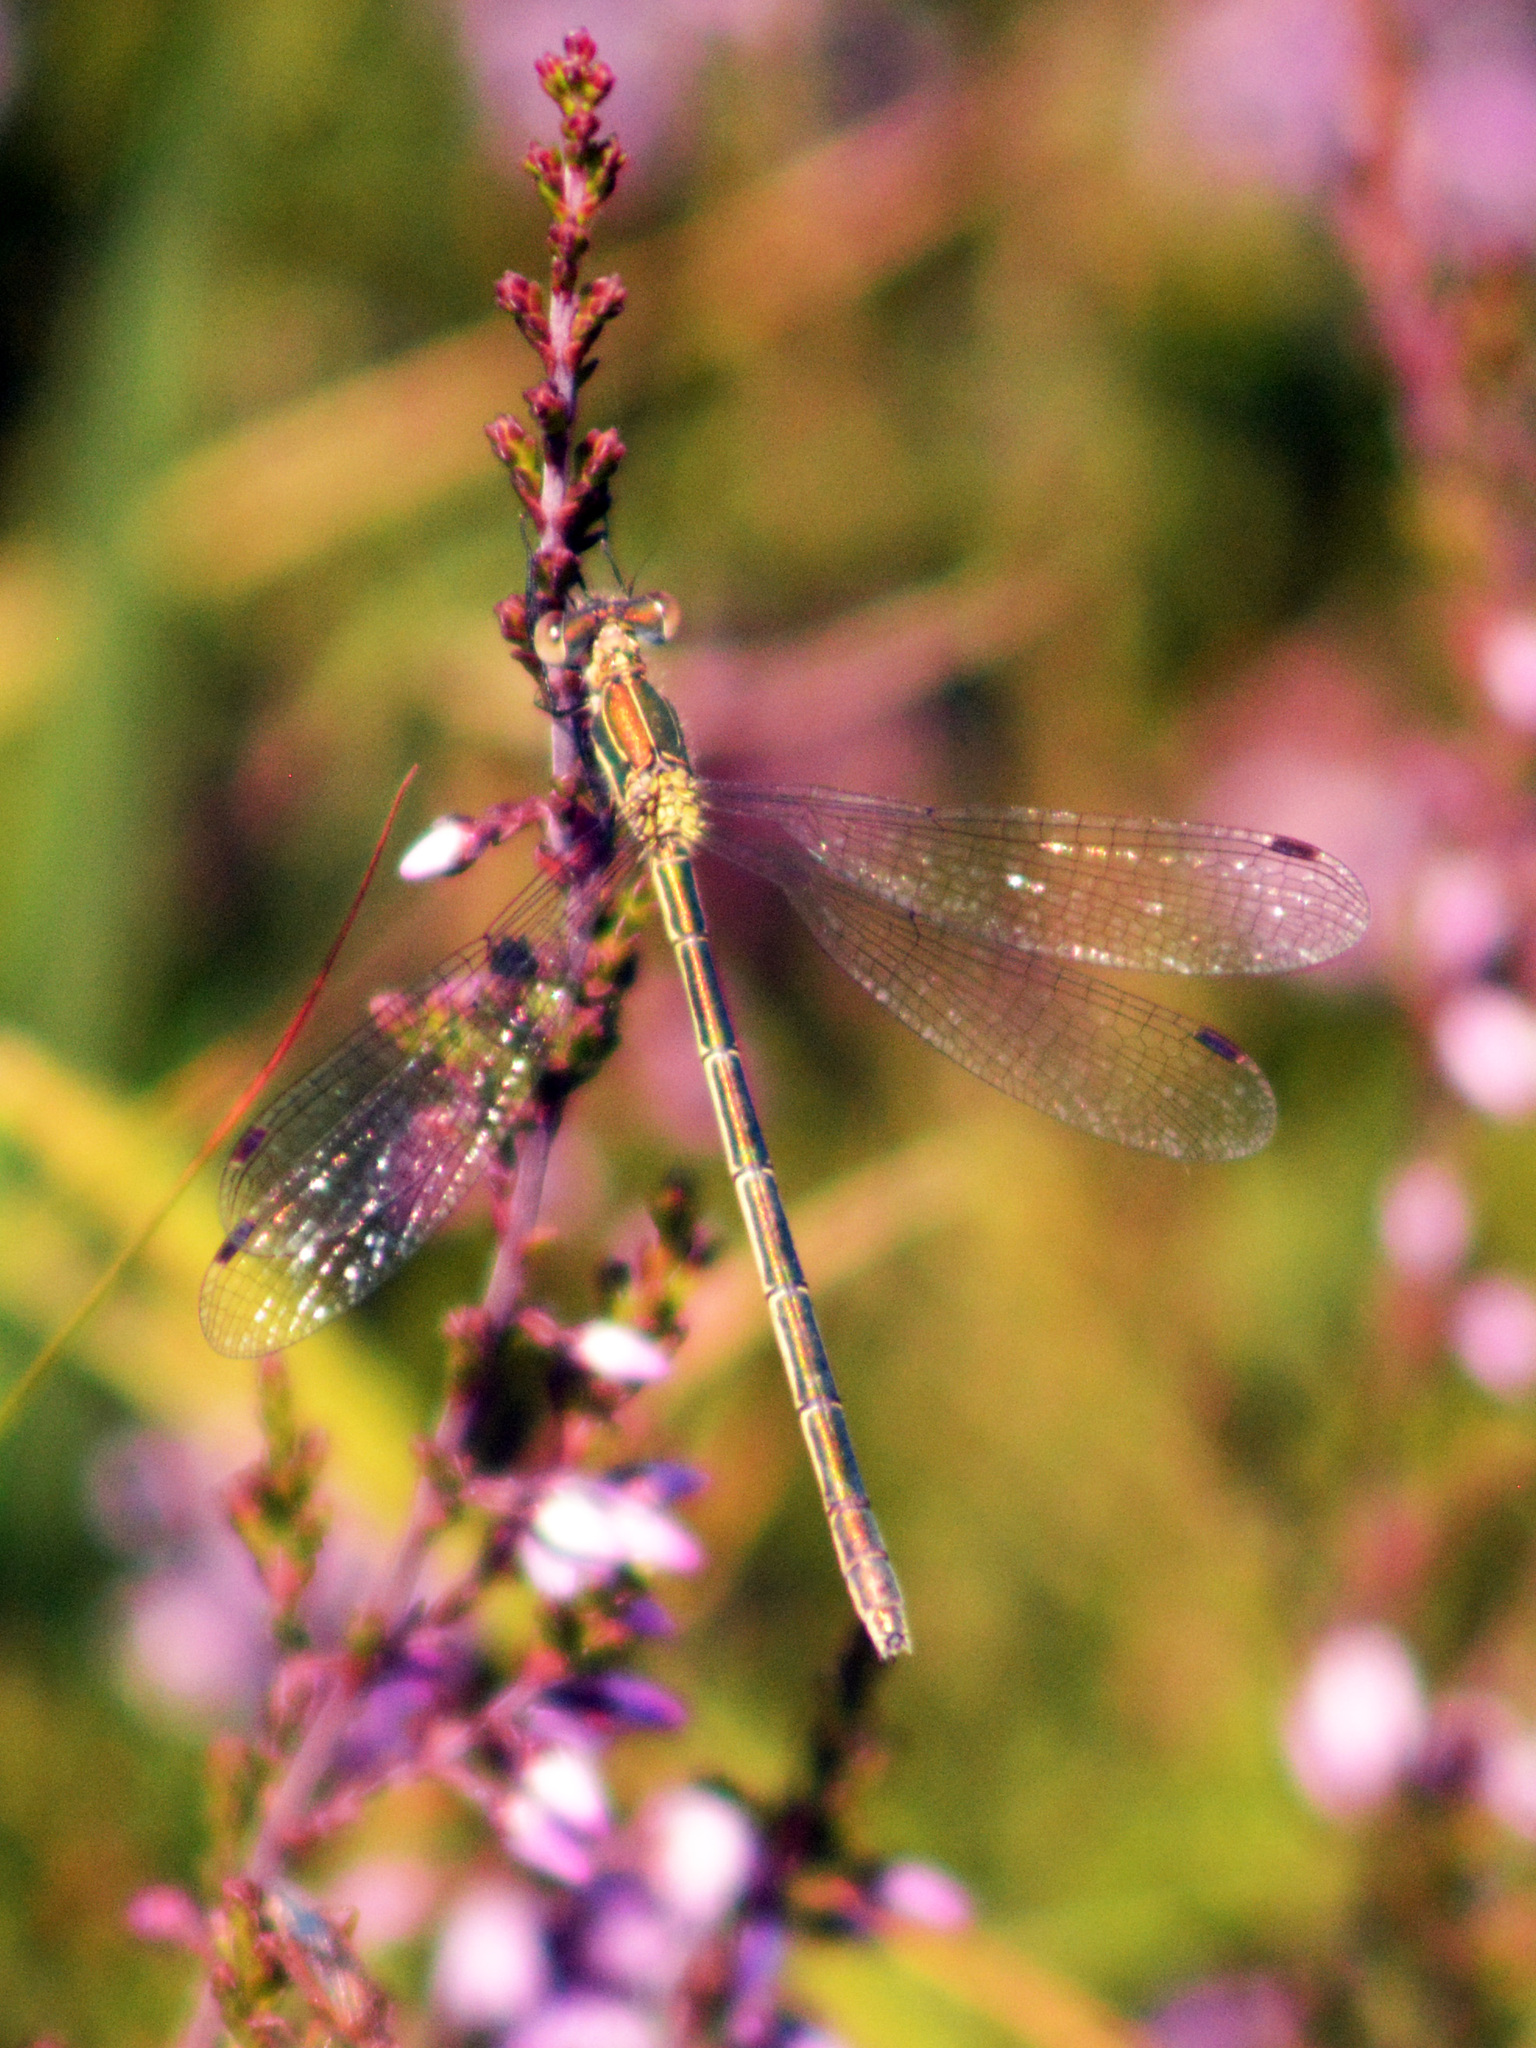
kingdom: Animalia
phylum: Arthropoda
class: Insecta
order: Odonata
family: Lestidae
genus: Lestes
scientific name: Lestes sponsa
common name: Common spreadwing
